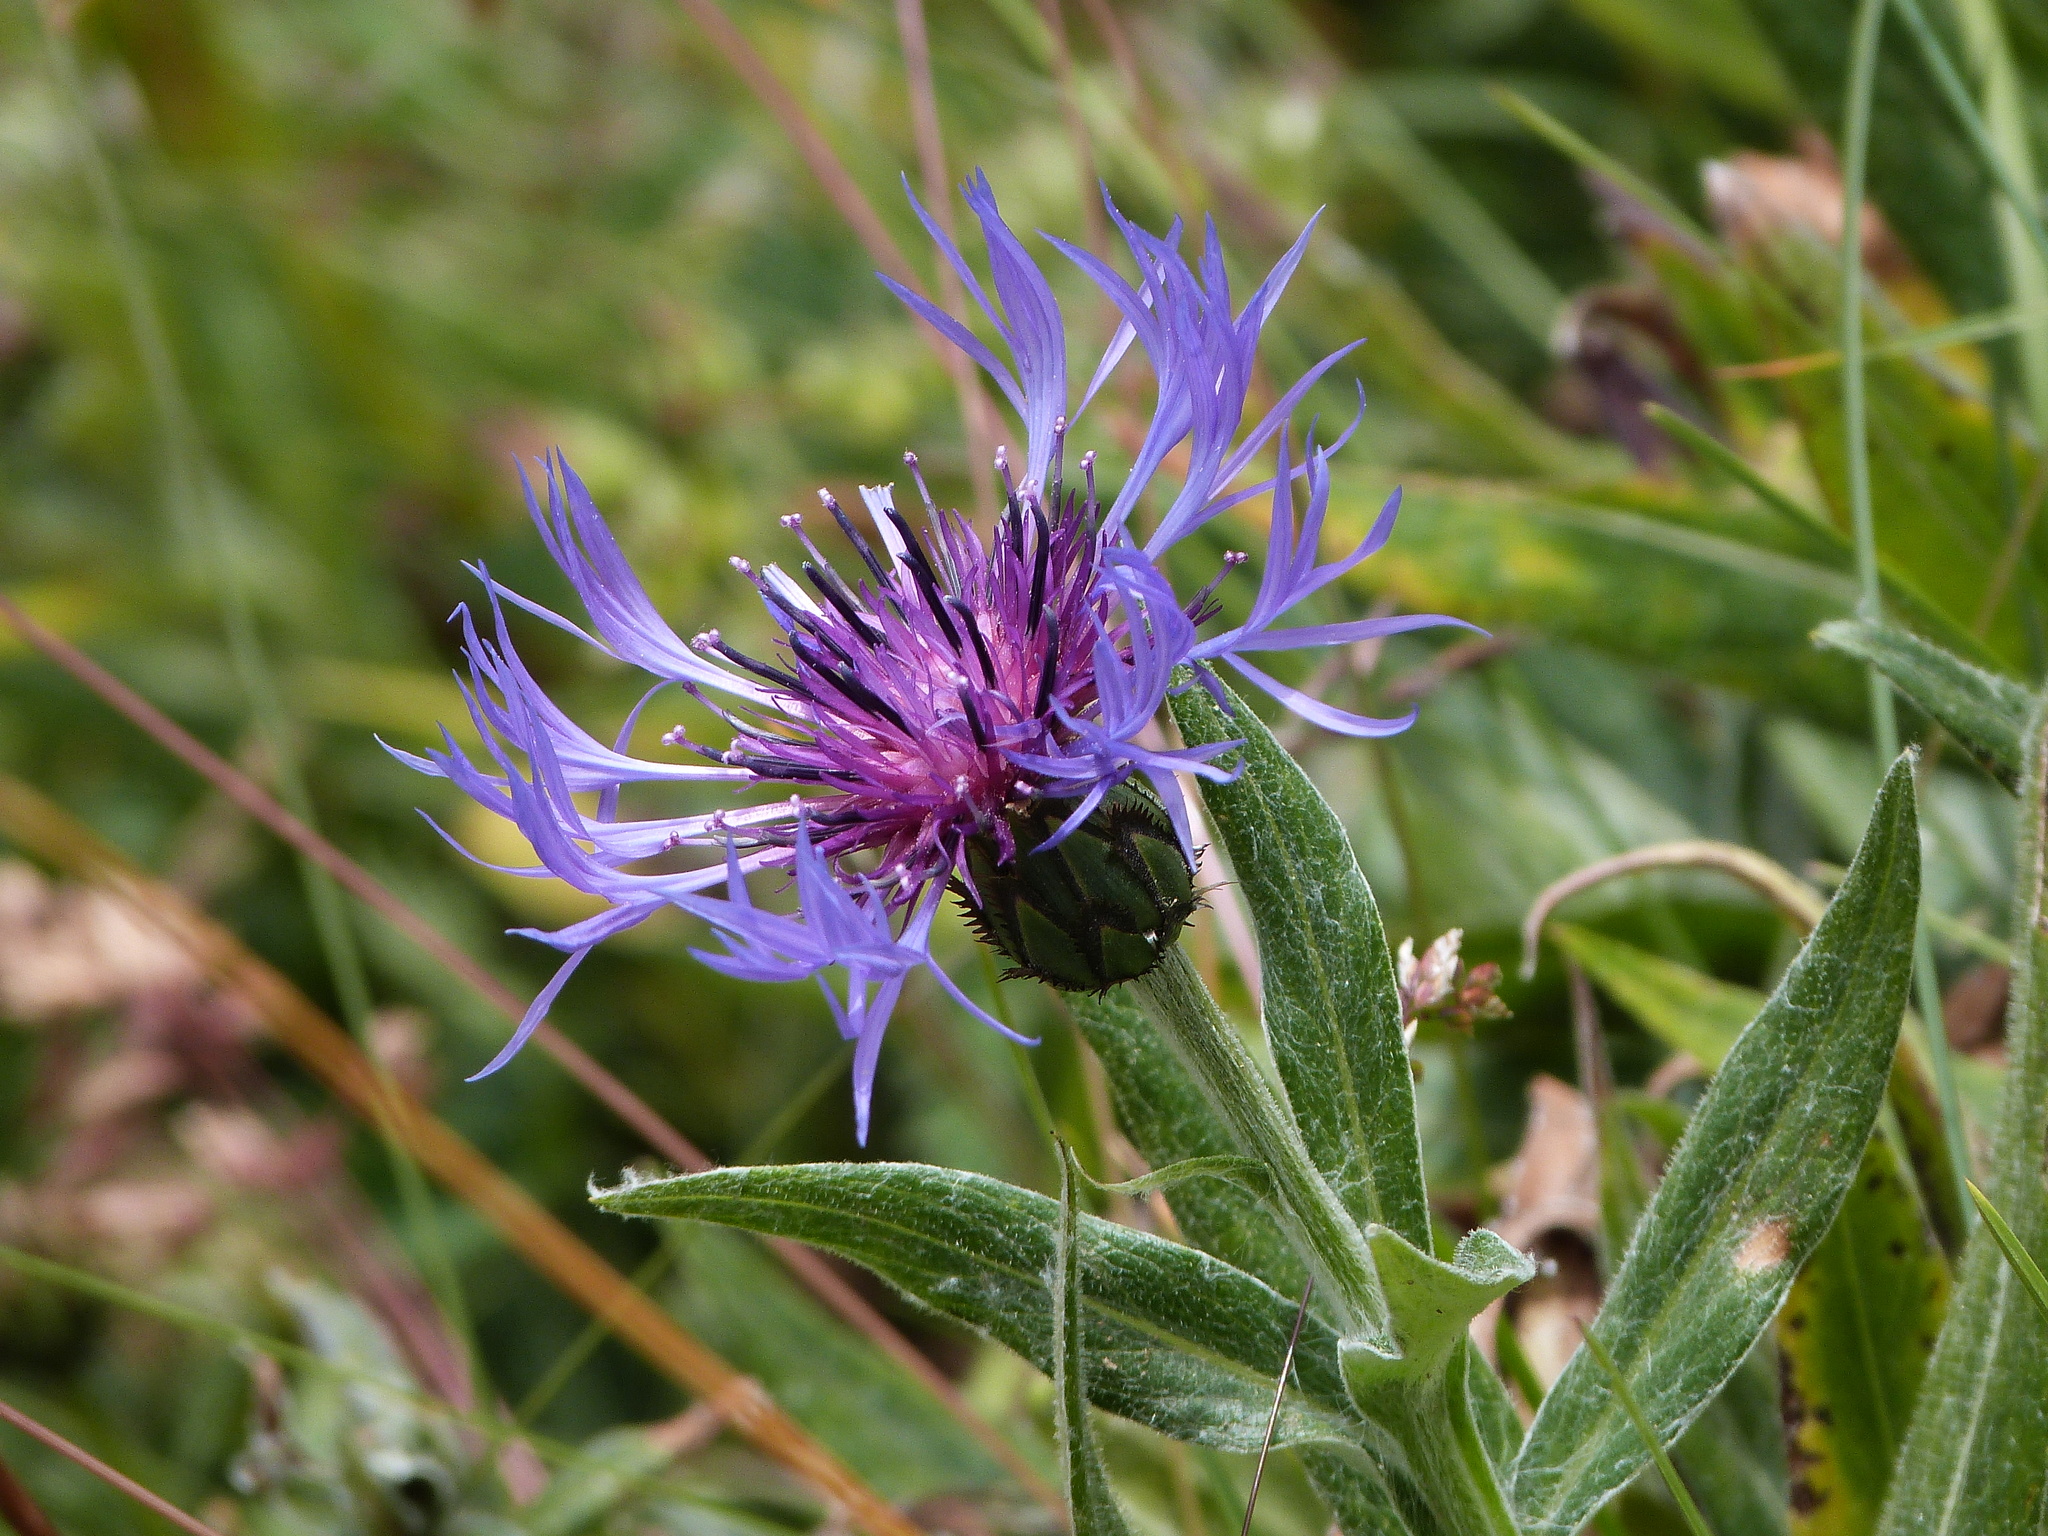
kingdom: Plantae
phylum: Tracheophyta
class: Magnoliopsida
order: Asterales
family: Asteraceae
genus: Centaurea
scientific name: Centaurea montana
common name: Perennial cornflower
